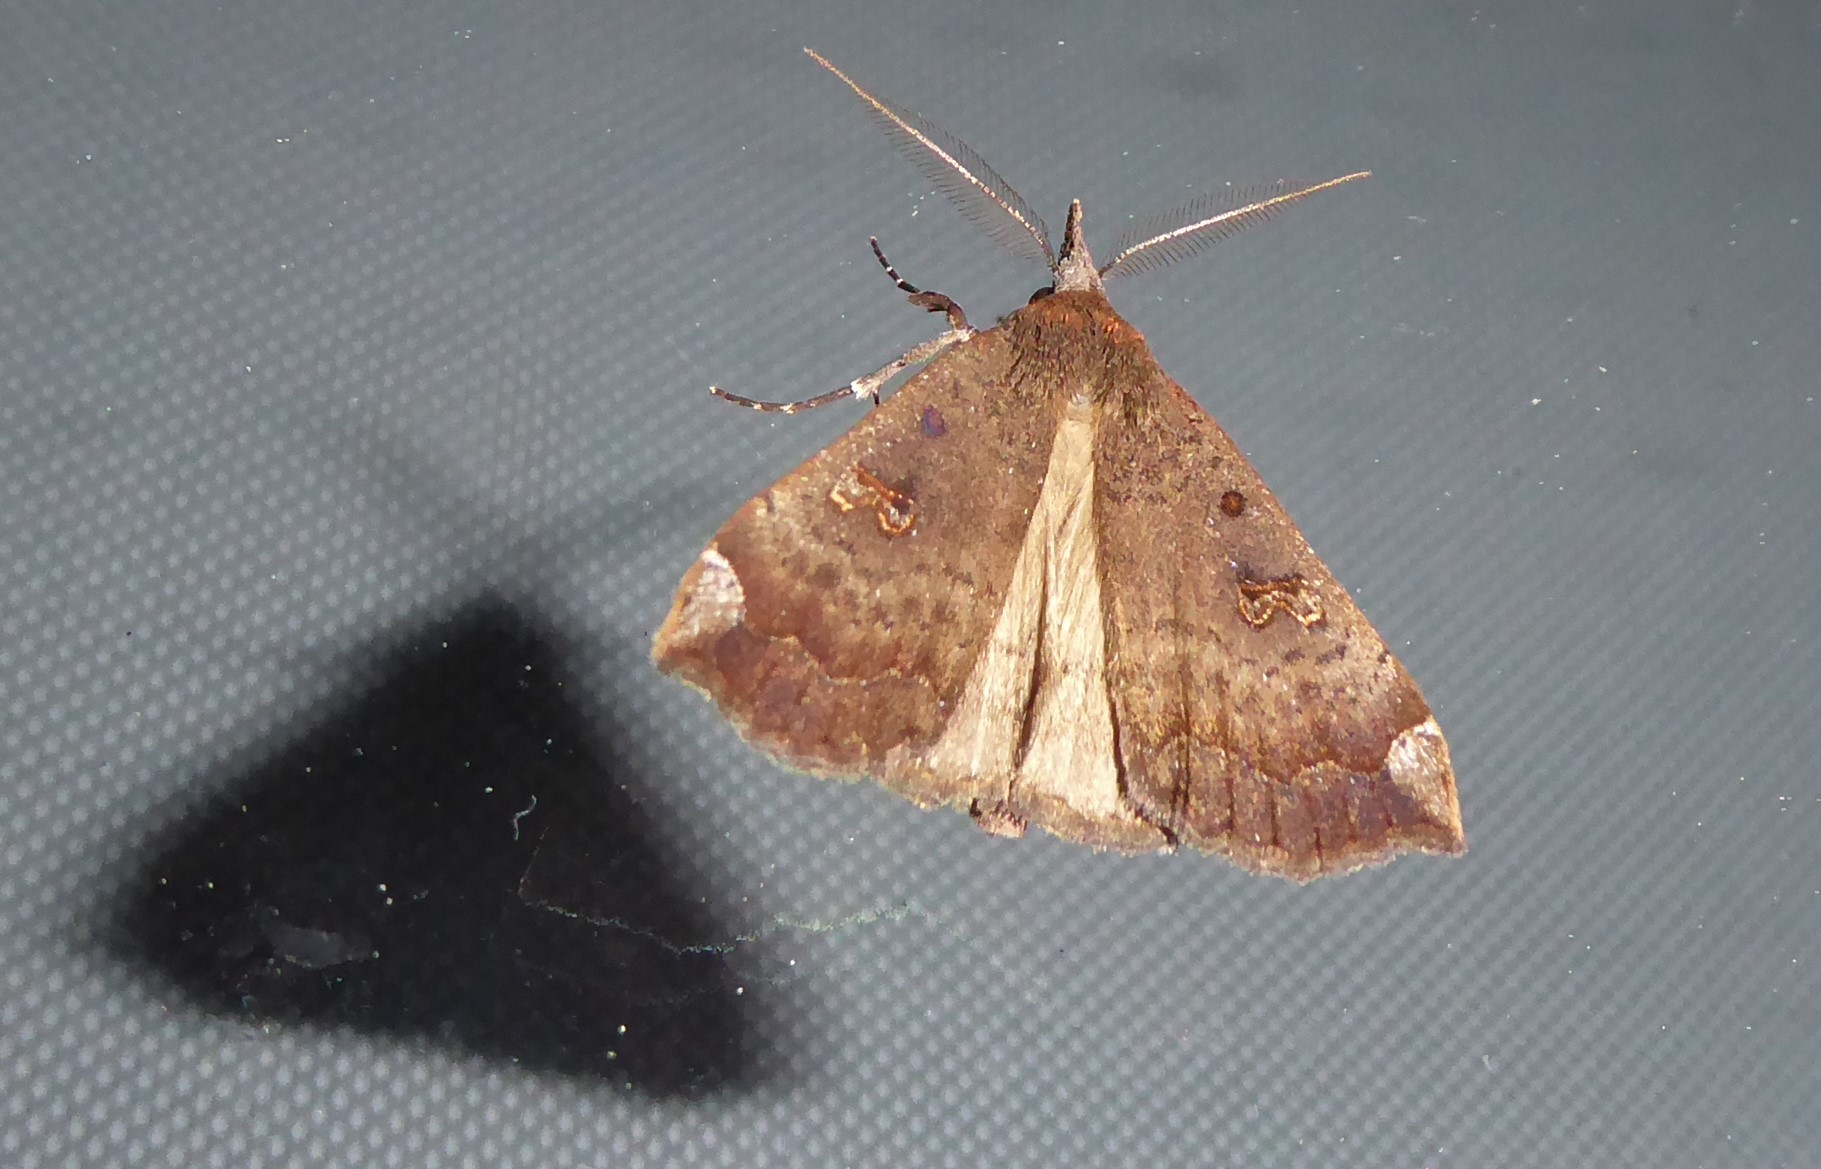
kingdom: Animalia
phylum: Arthropoda
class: Insecta
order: Lepidoptera
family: Erebidae
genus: Rhapsa
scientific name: Rhapsa scotosialis
